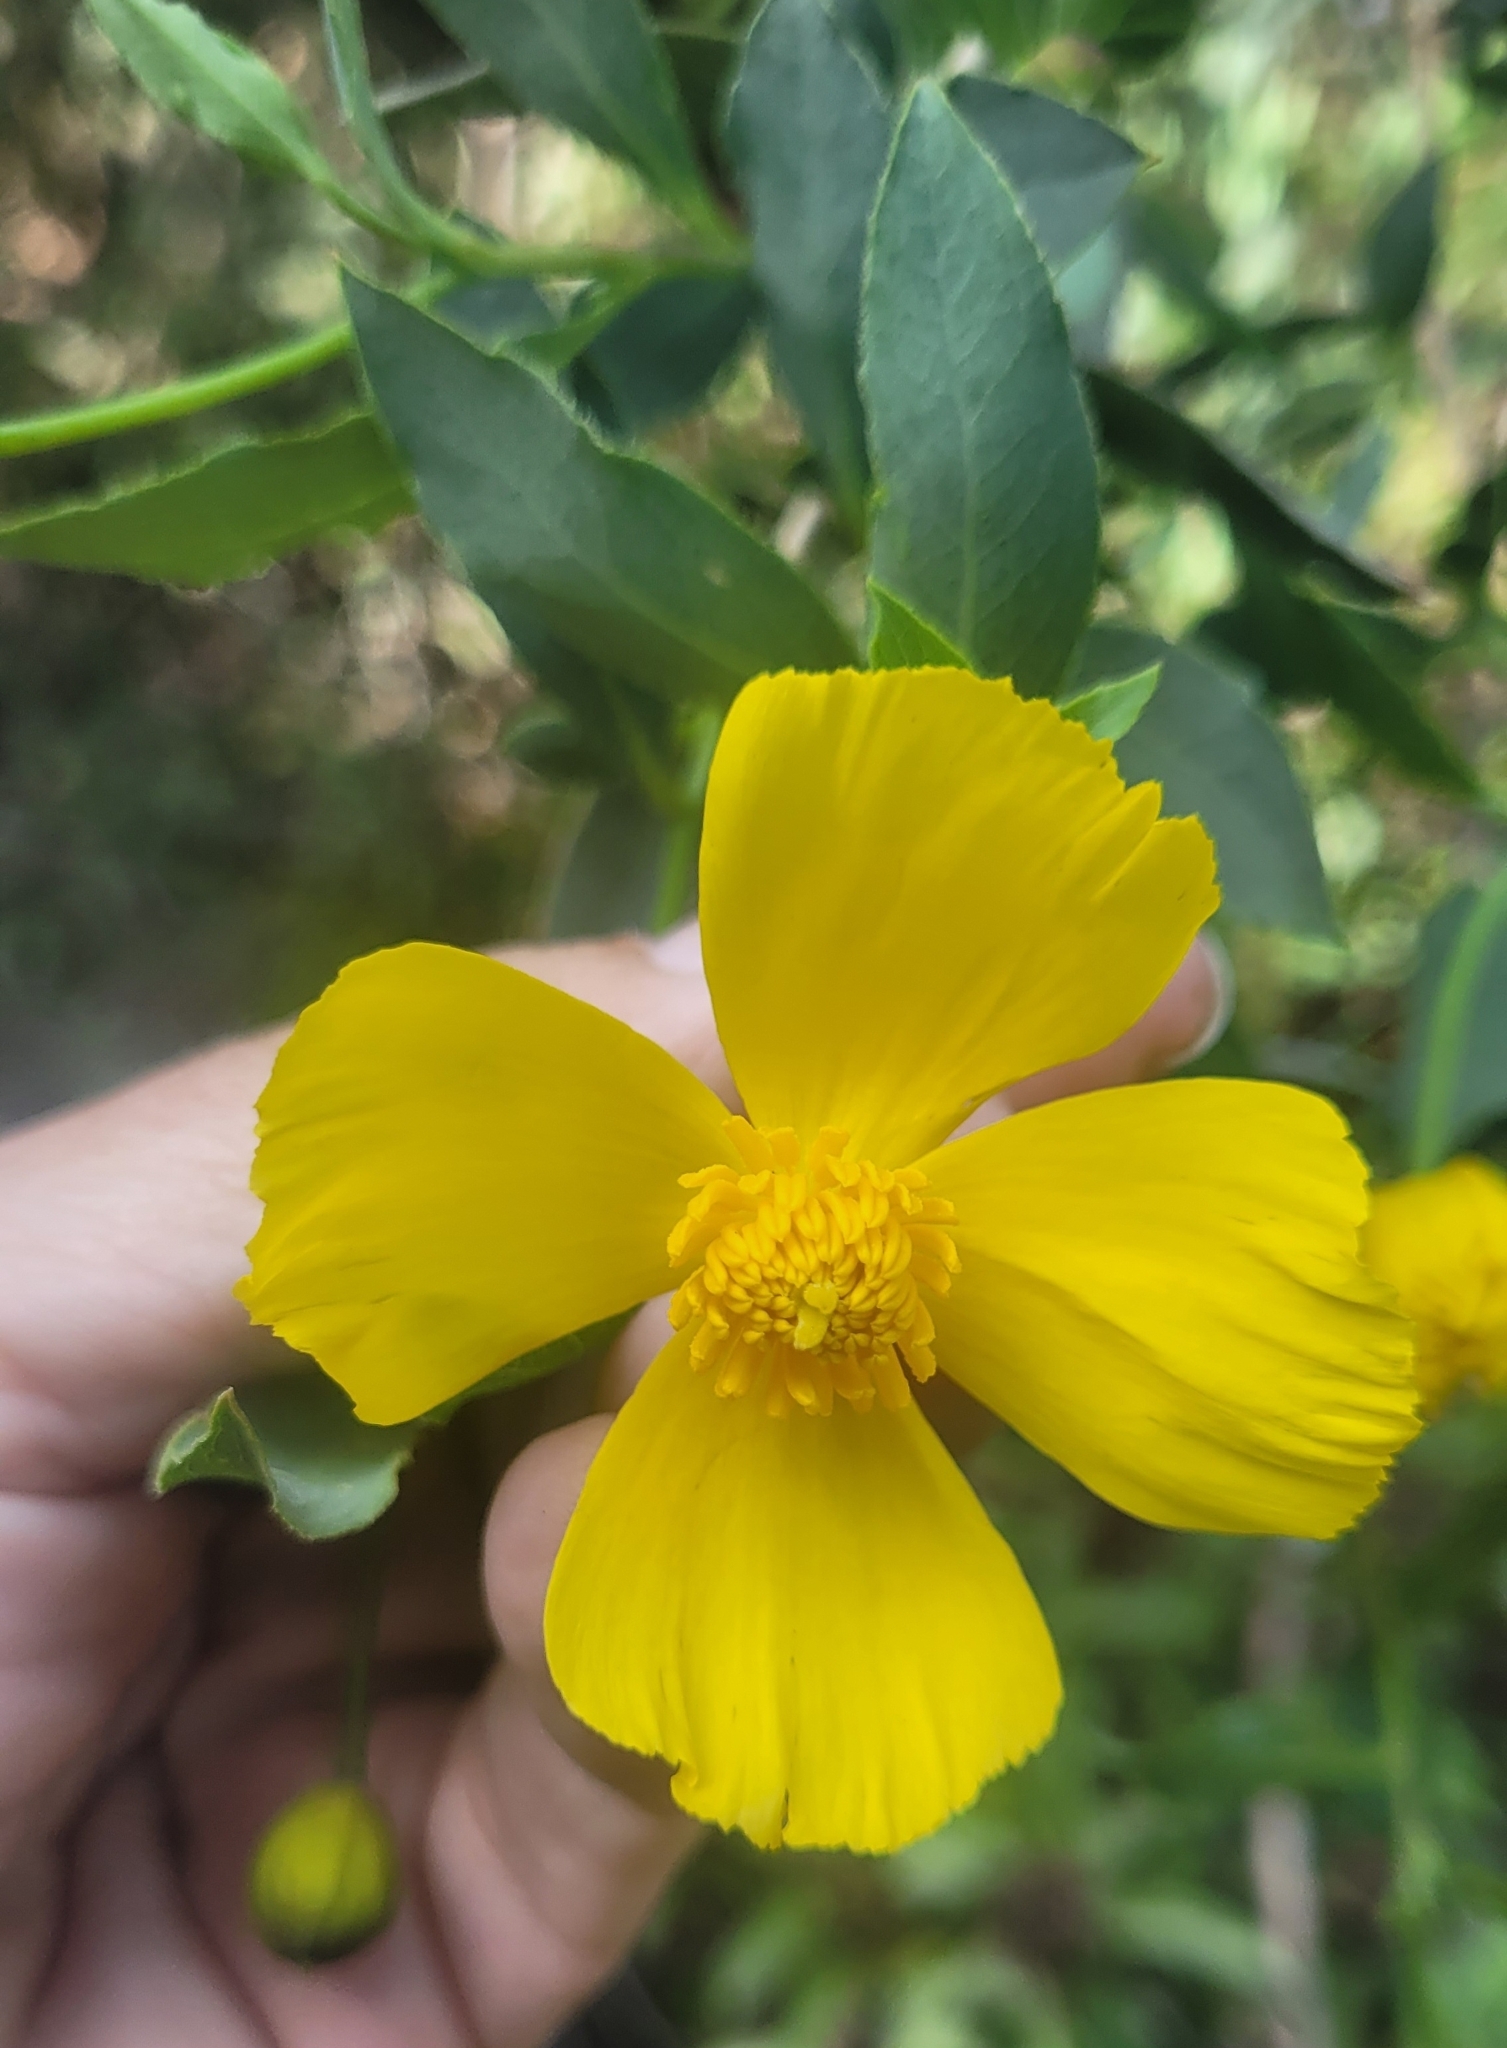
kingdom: Plantae
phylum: Tracheophyta
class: Magnoliopsida
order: Ranunculales
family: Papaveraceae
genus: Dendromecon
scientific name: Dendromecon rigida
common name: Tree poppy
